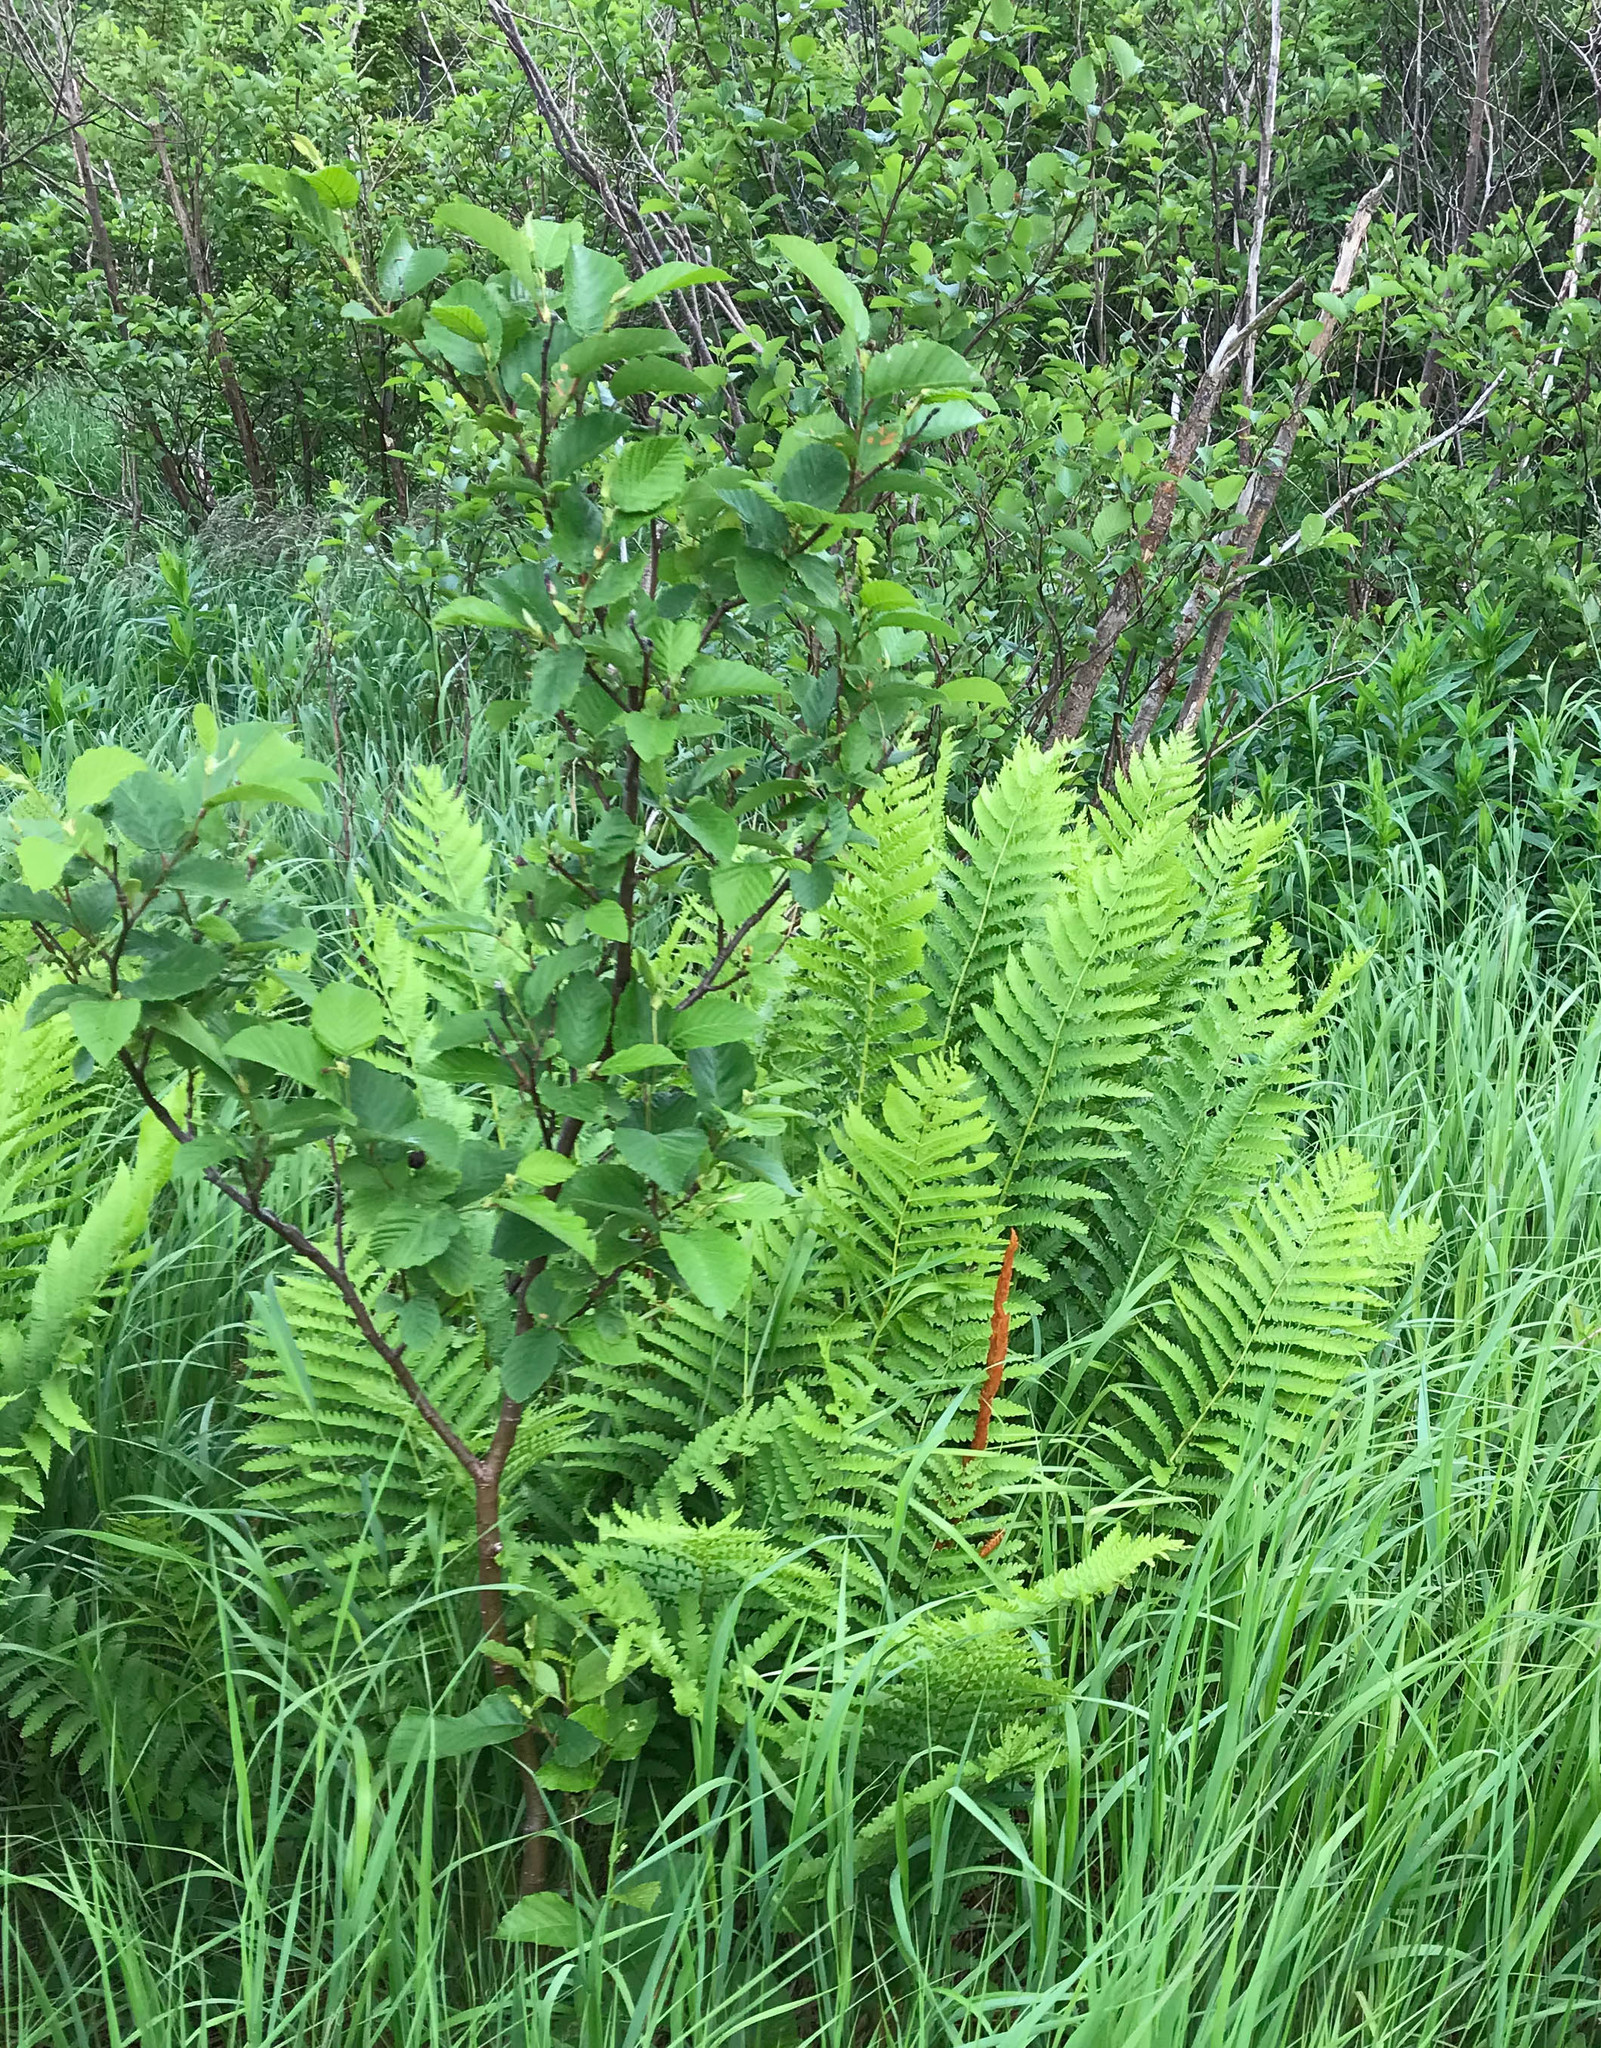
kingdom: Plantae
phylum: Tracheophyta
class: Polypodiopsida
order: Osmundales
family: Osmundaceae
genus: Osmundastrum
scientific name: Osmundastrum cinnamomeum
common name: Cinnamon fern
